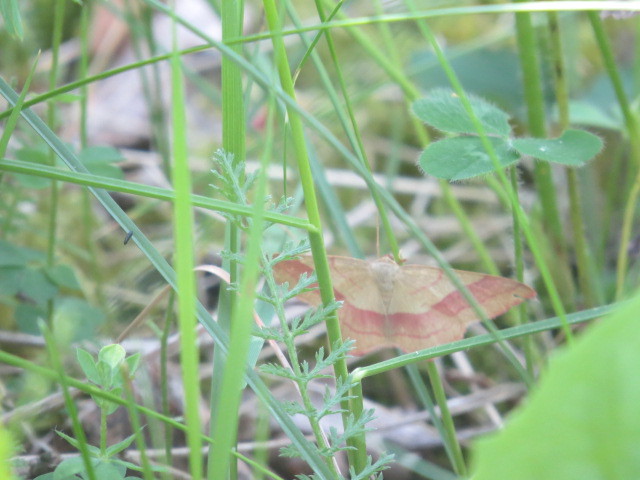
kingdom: Animalia
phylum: Arthropoda
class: Insecta
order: Lepidoptera
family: Geometridae
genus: Rhodostrophia
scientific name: Rhodostrophia vibicaria
